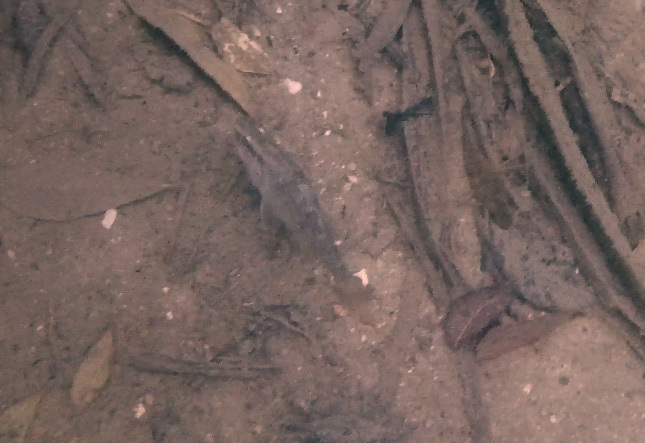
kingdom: Animalia
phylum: Chordata
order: Perciformes
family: Apogonidae
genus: Glossamia
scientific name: Glossamia aprion
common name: Mouth almighty
